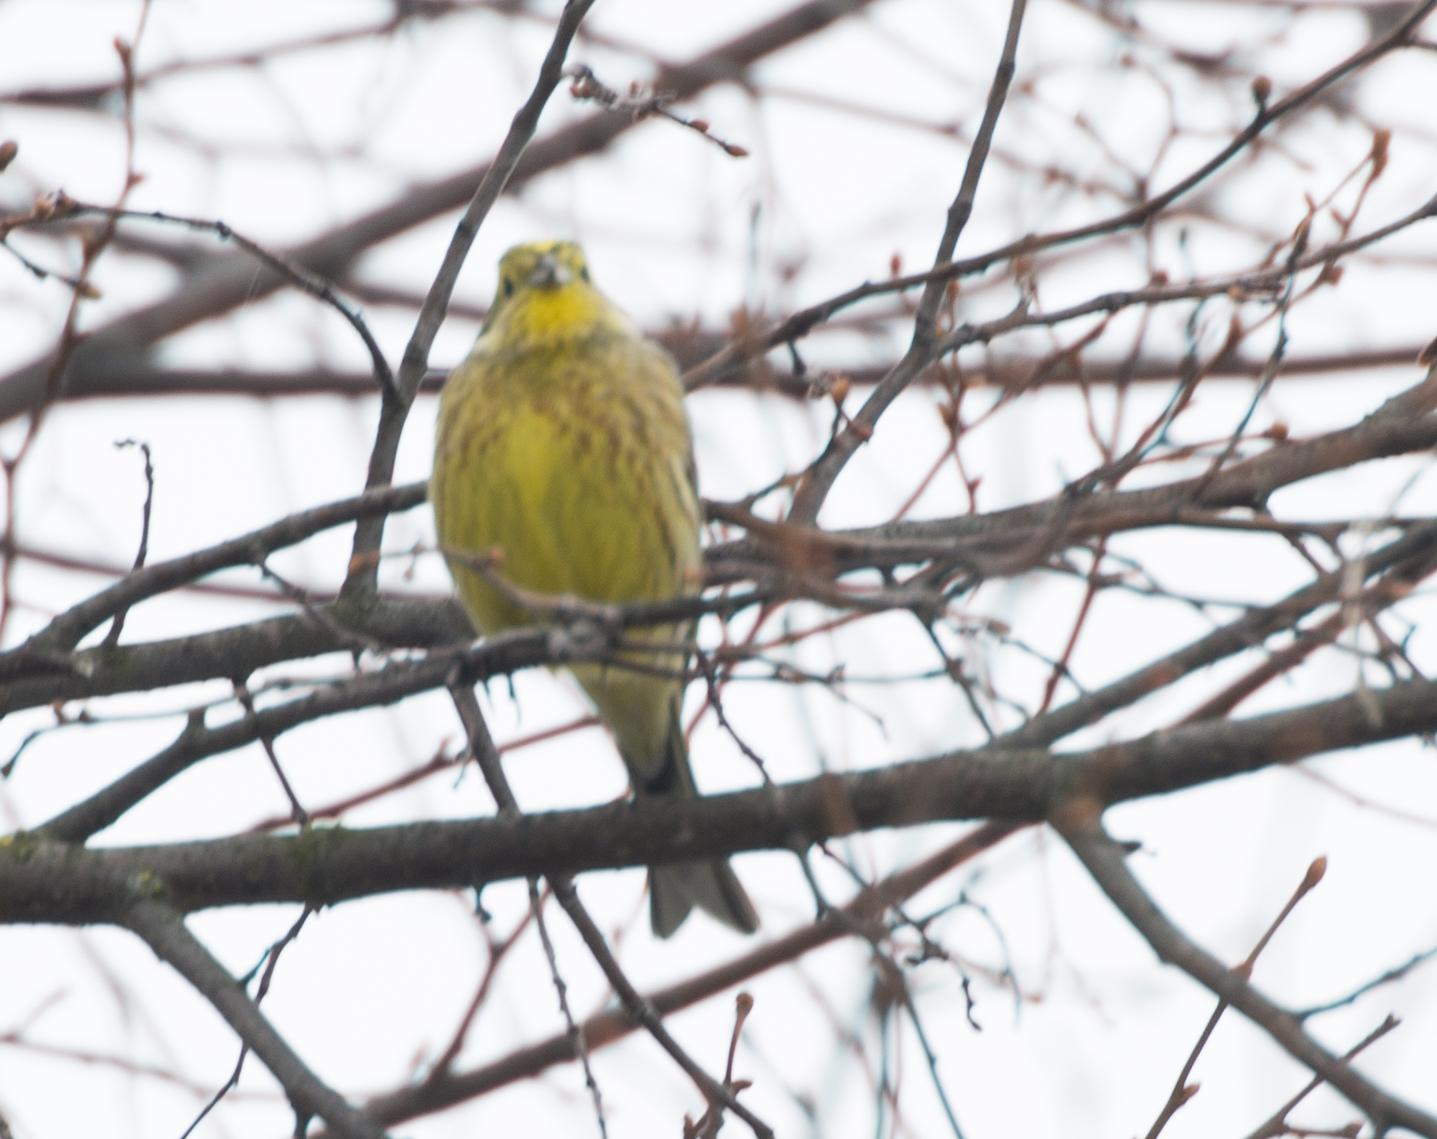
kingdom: Animalia
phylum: Chordata
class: Aves
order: Passeriformes
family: Emberizidae
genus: Emberiza
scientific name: Emberiza citrinella
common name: Yellowhammer
